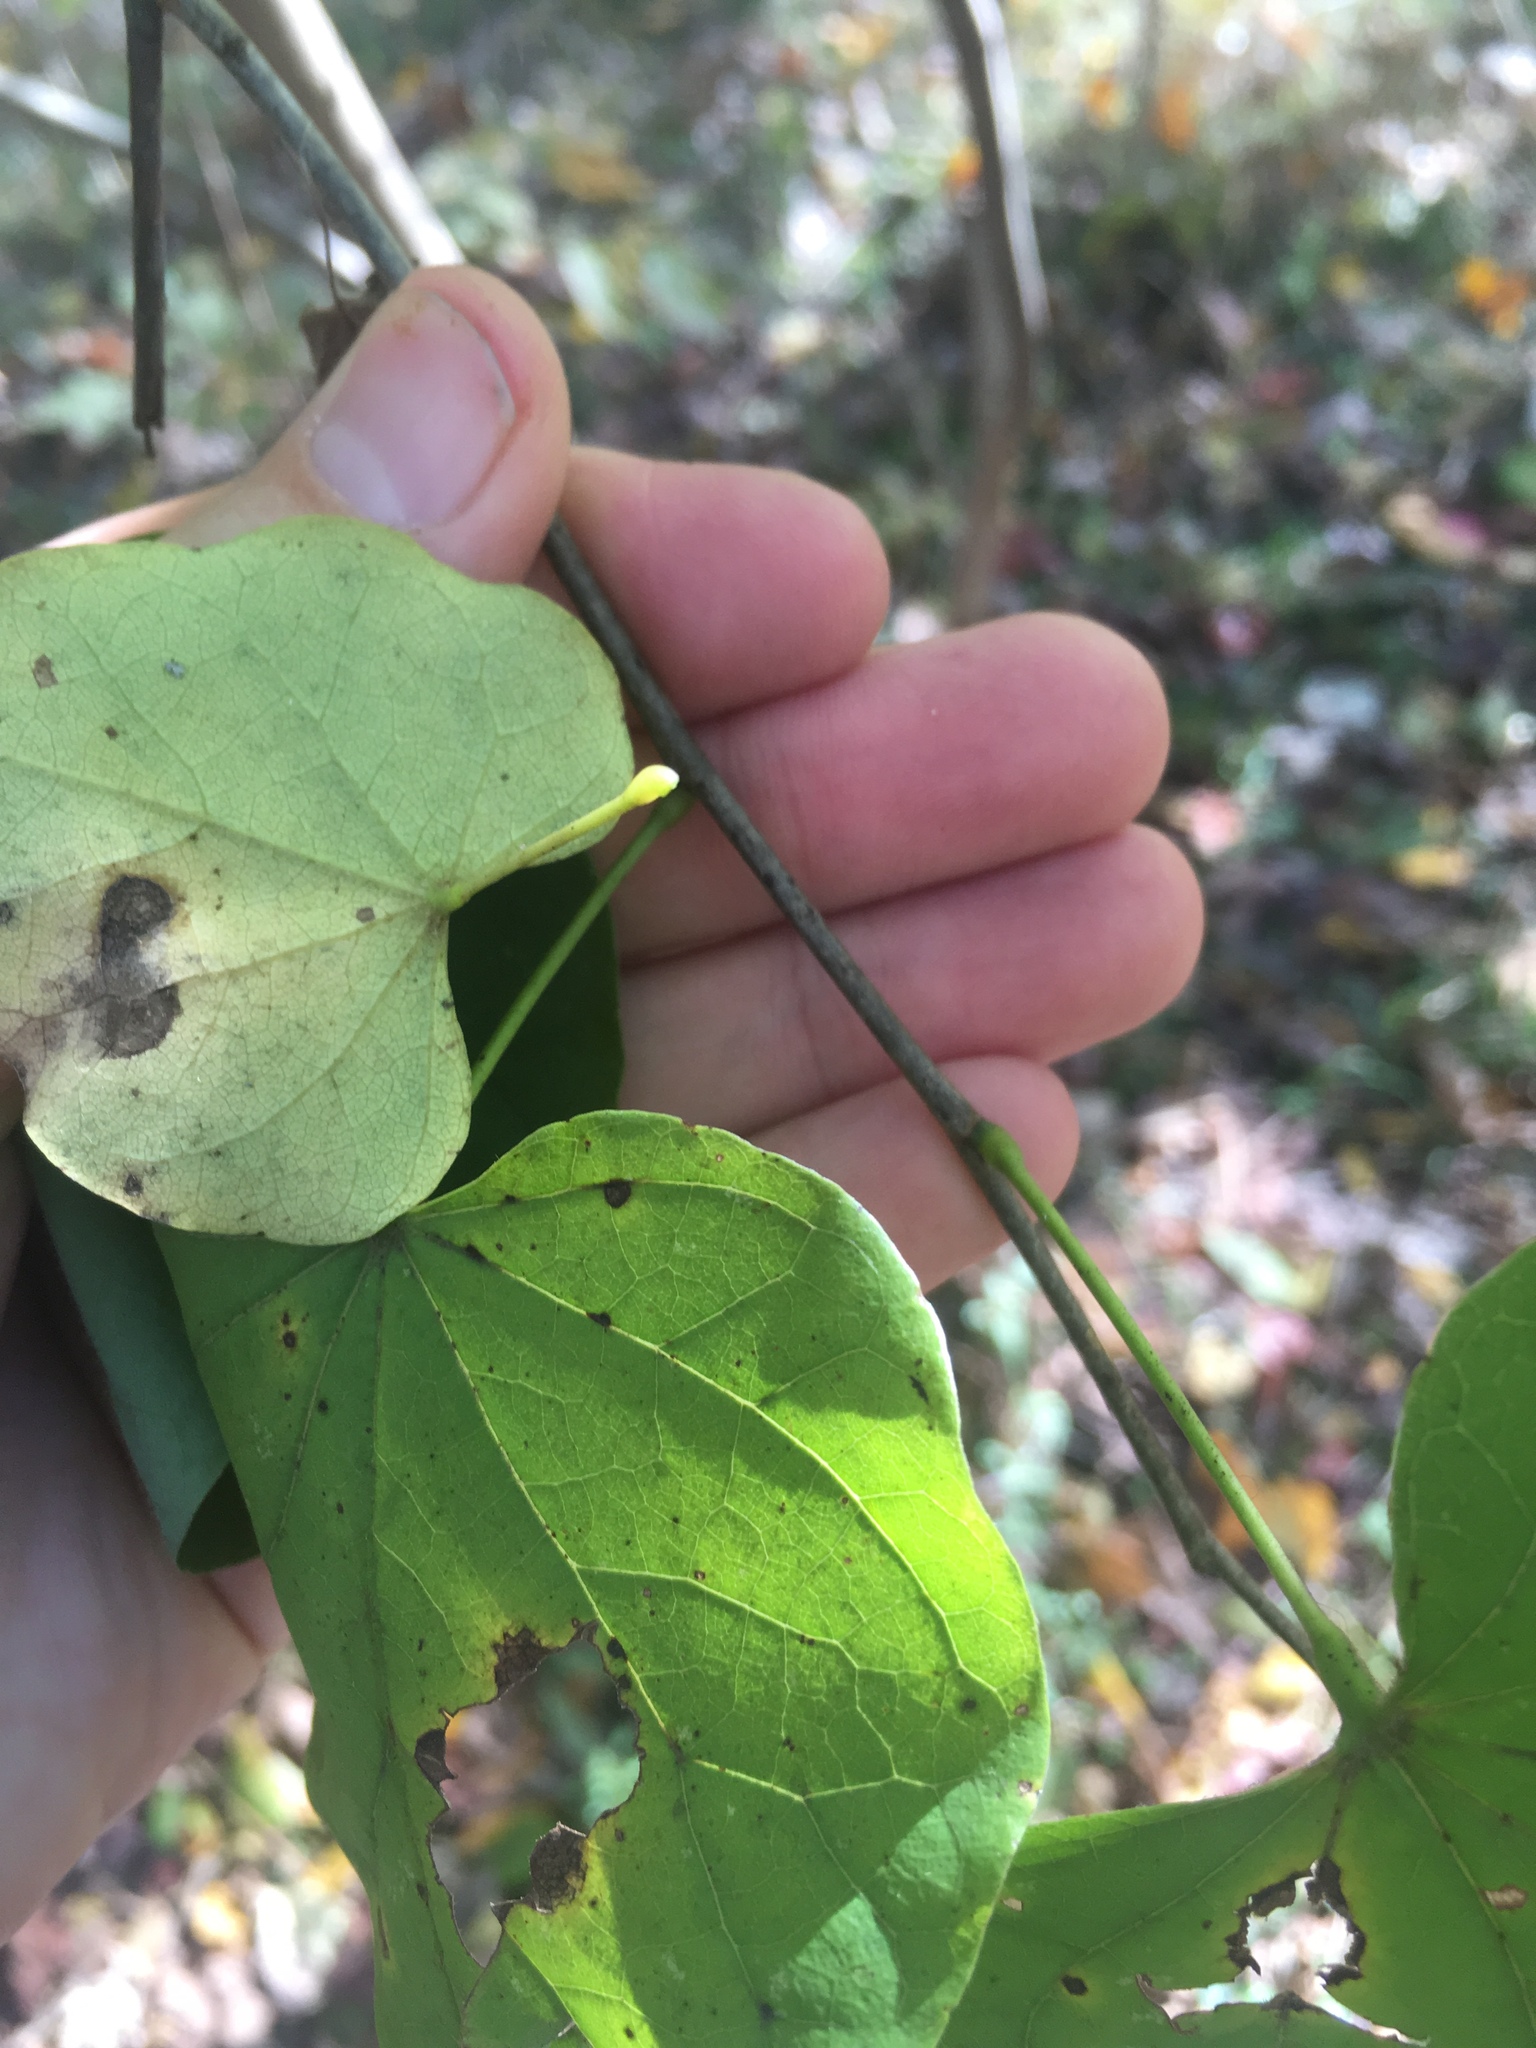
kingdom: Plantae
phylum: Tracheophyta
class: Magnoliopsida
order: Fabales
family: Fabaceae
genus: Cercis
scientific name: Cercis canadensis
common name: Eastern redbud
